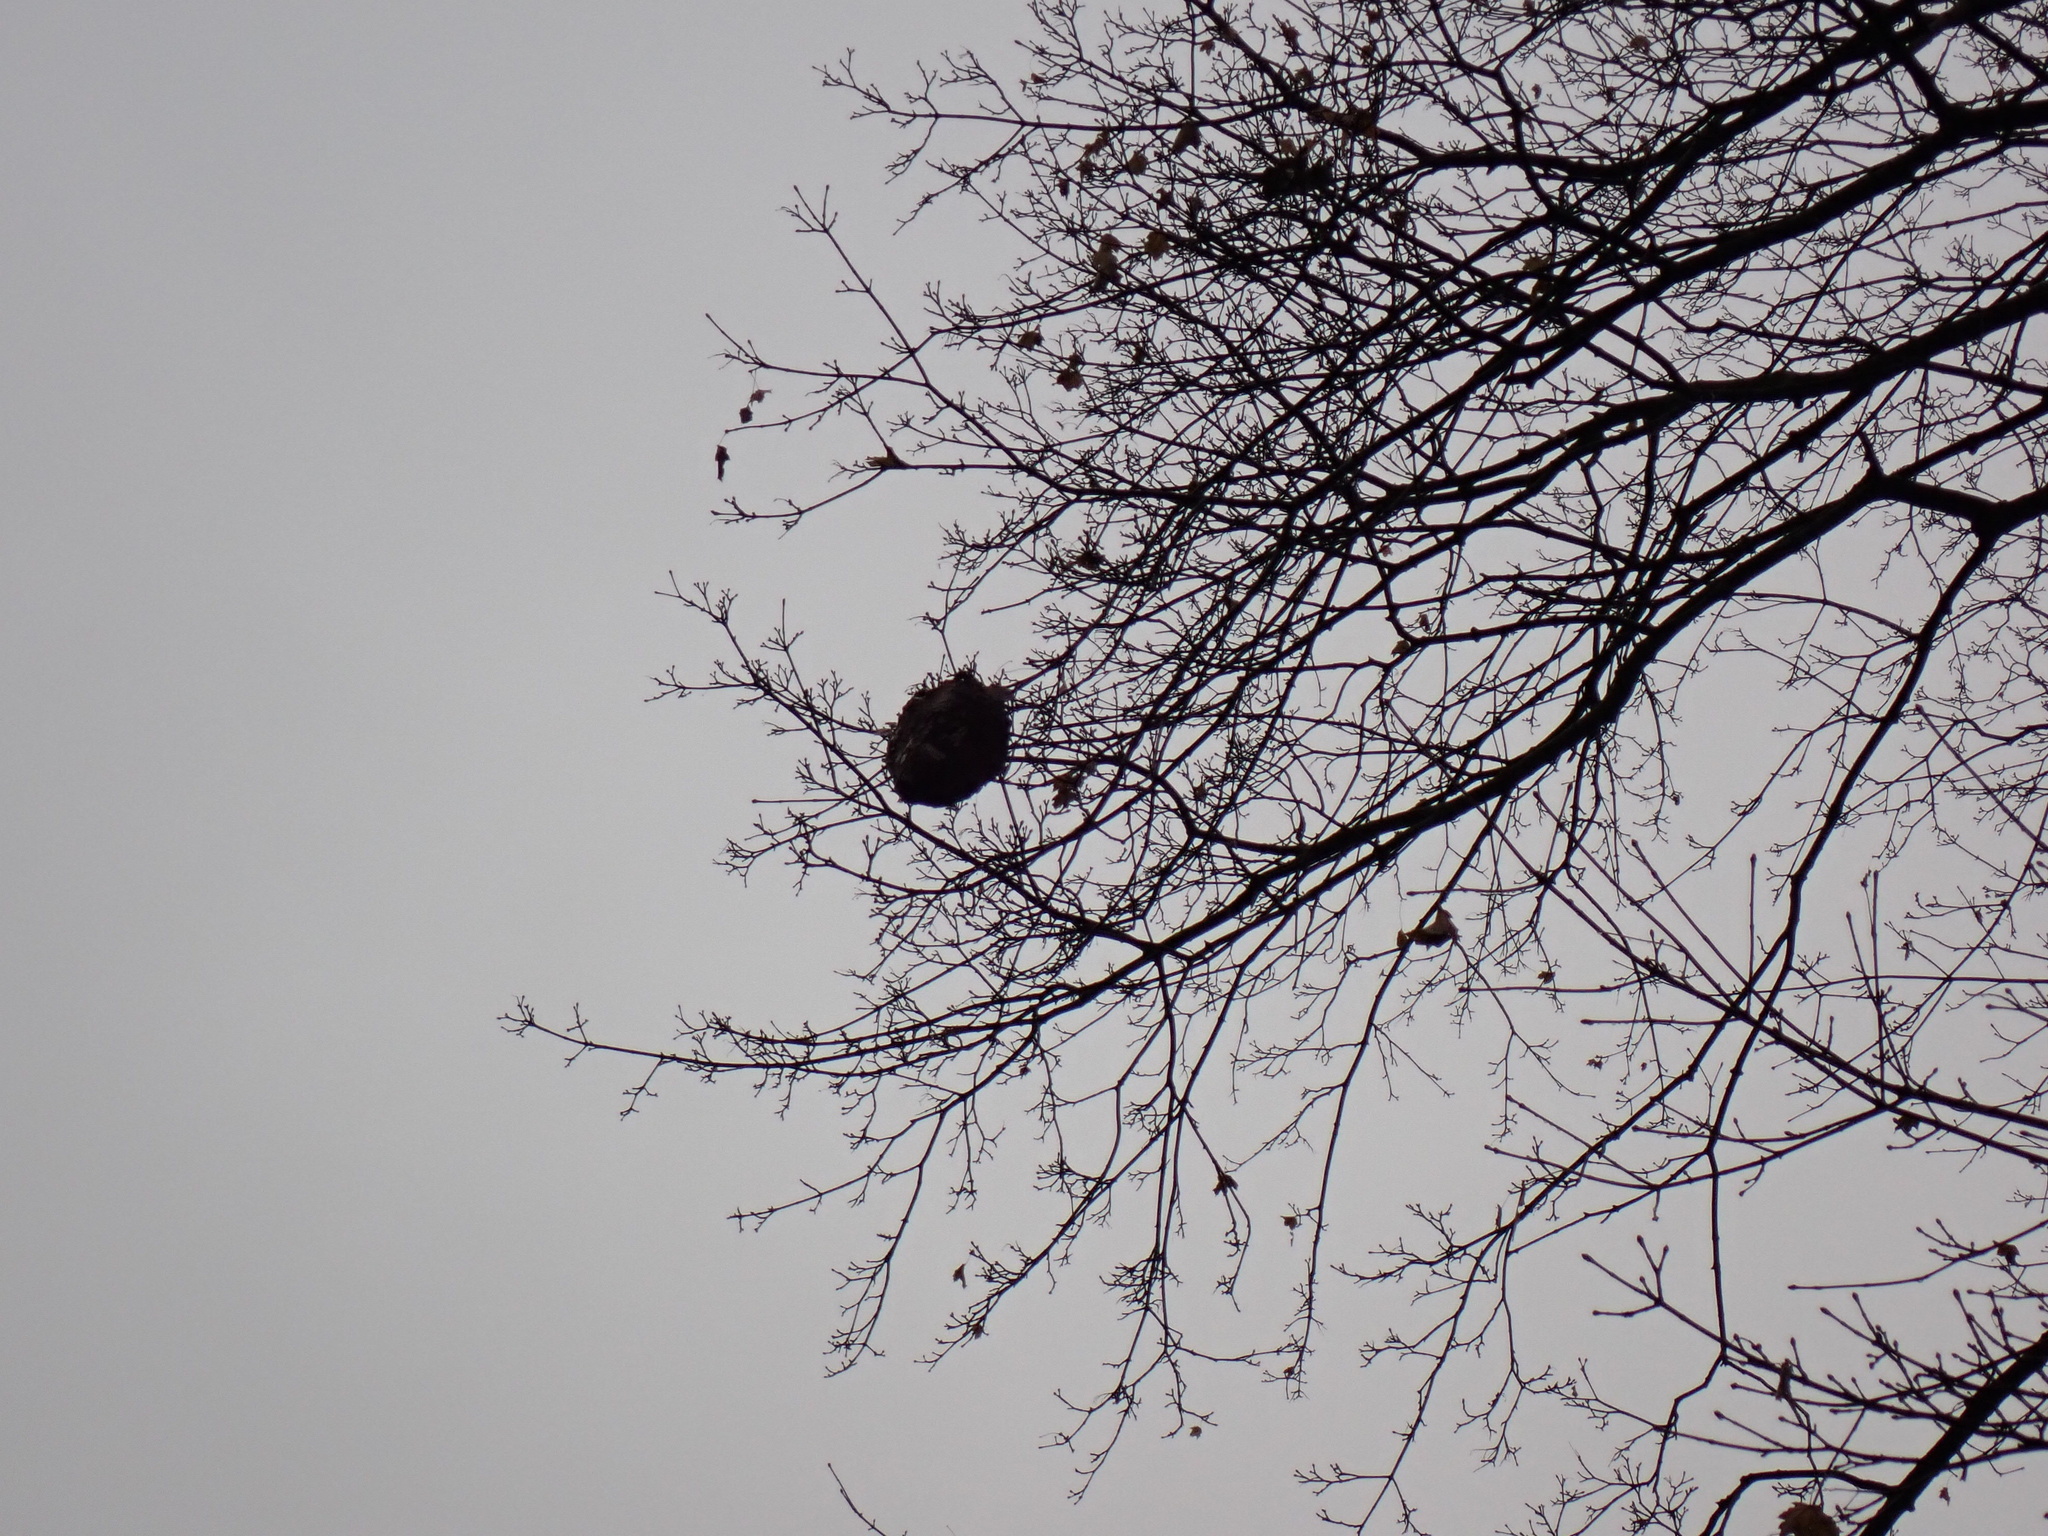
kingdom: Animalia
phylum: Arthropoda
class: Insecta
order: Hymenoptera
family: Vespidae
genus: Dolichovespula
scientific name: Dolichovespula maculata
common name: Bald-faced hornet
